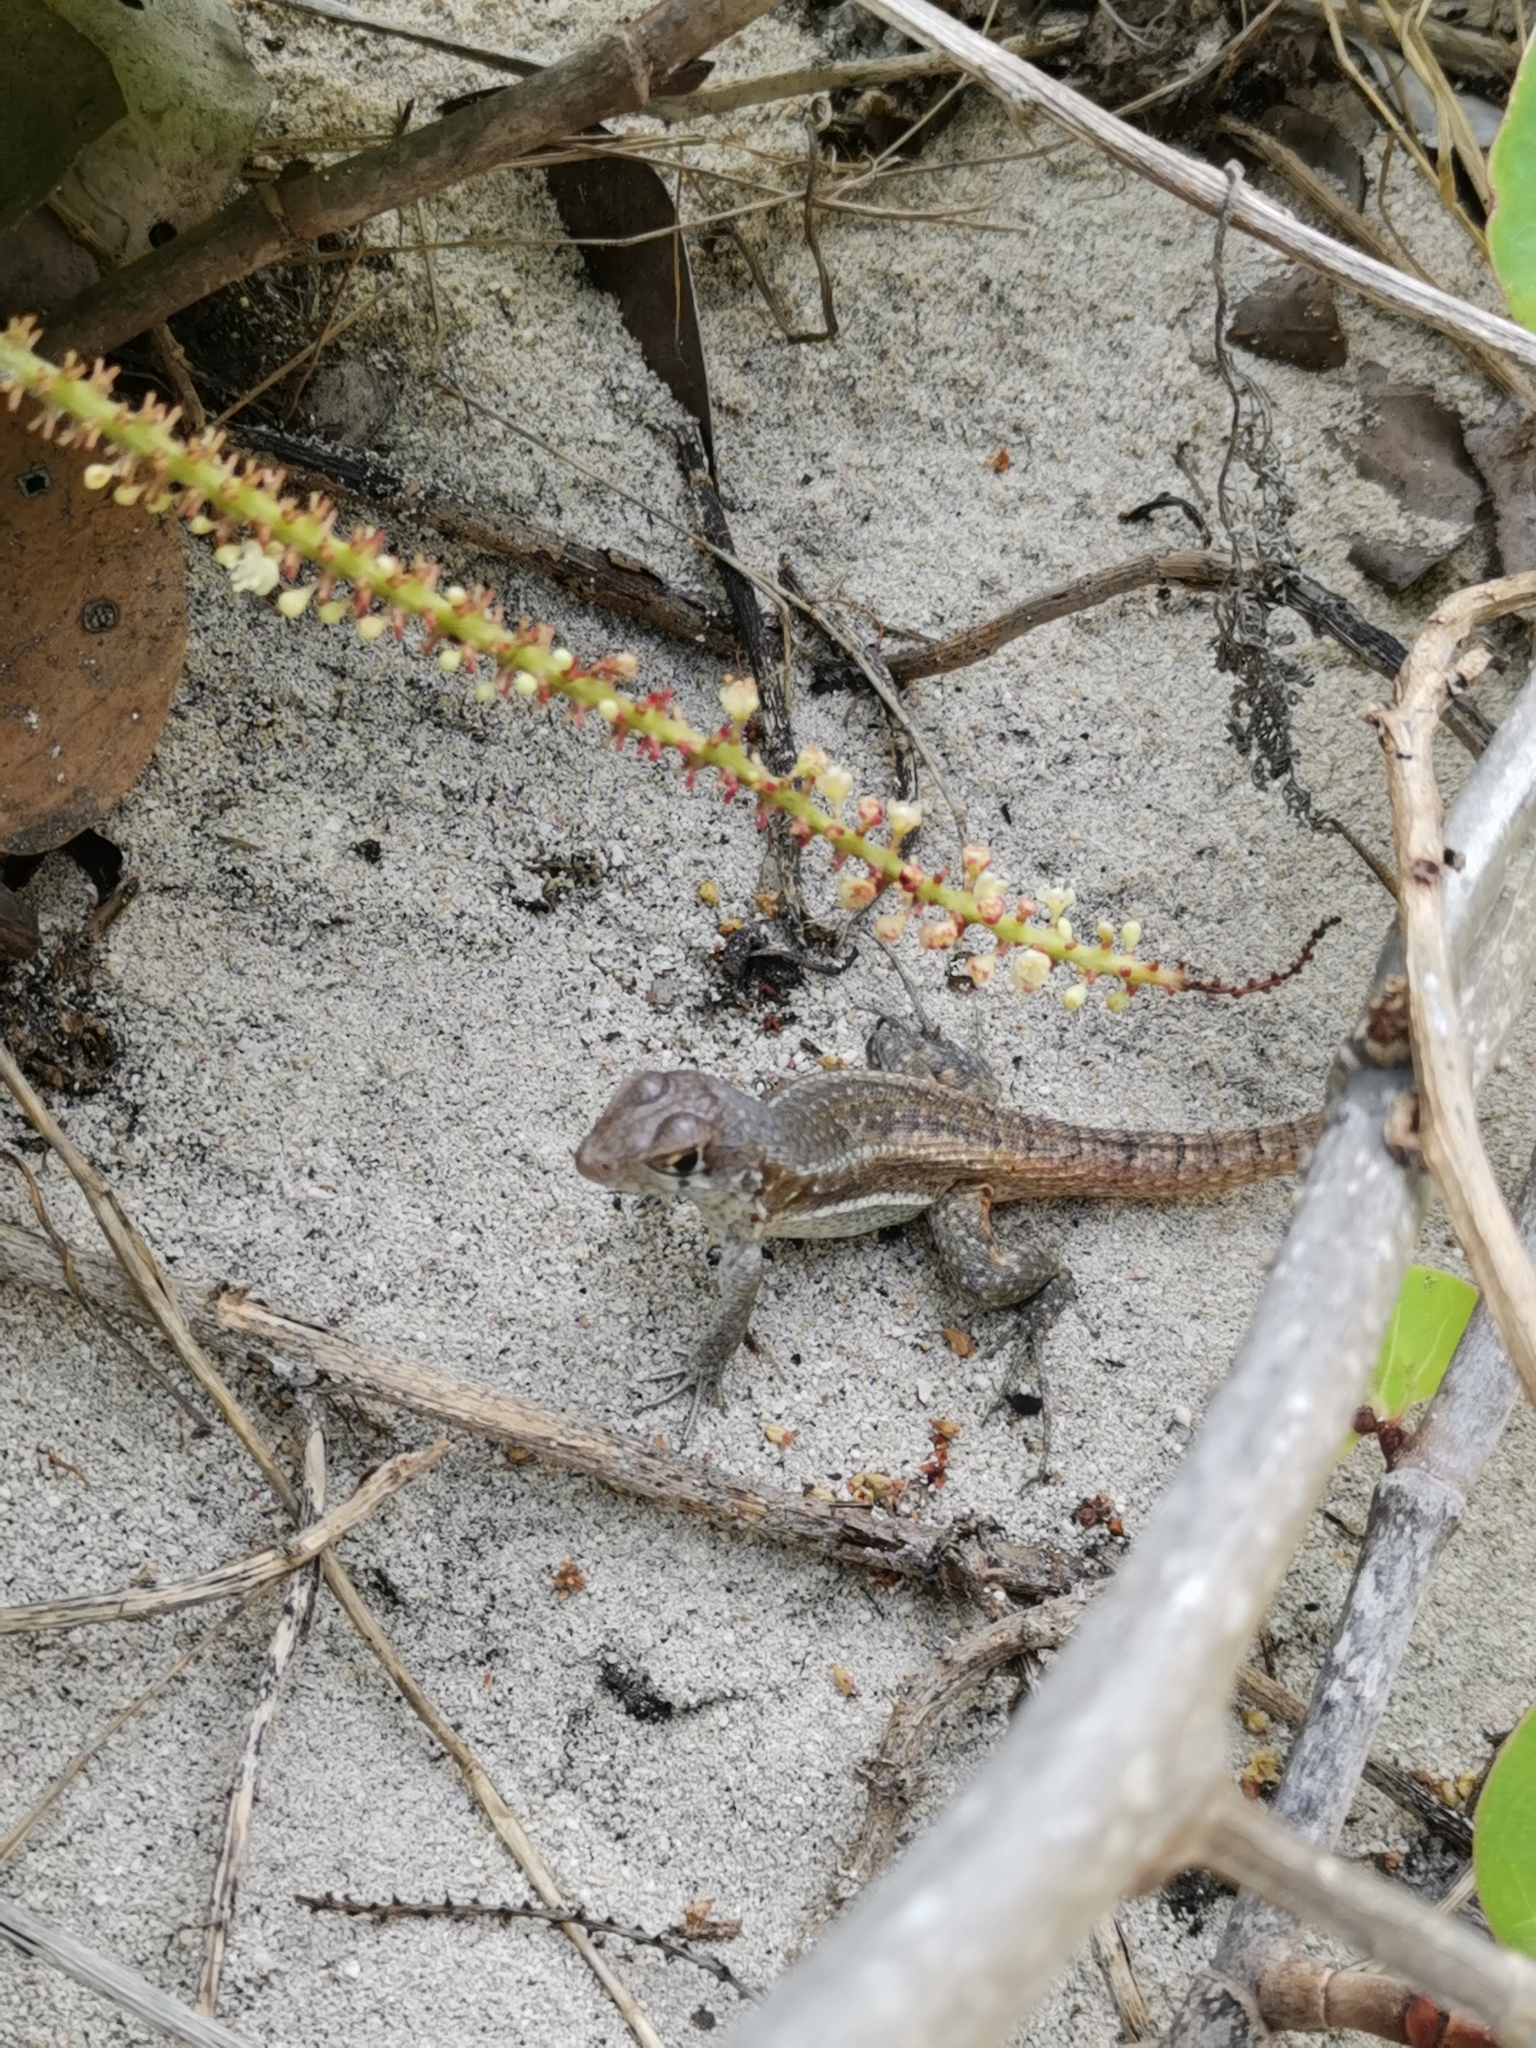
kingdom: Animalia
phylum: Chordata
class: Squamata
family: Leiocephalidae
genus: Leiocephalus
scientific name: Leiocephalus psammodromus
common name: Bastion cay curlytail lizard
